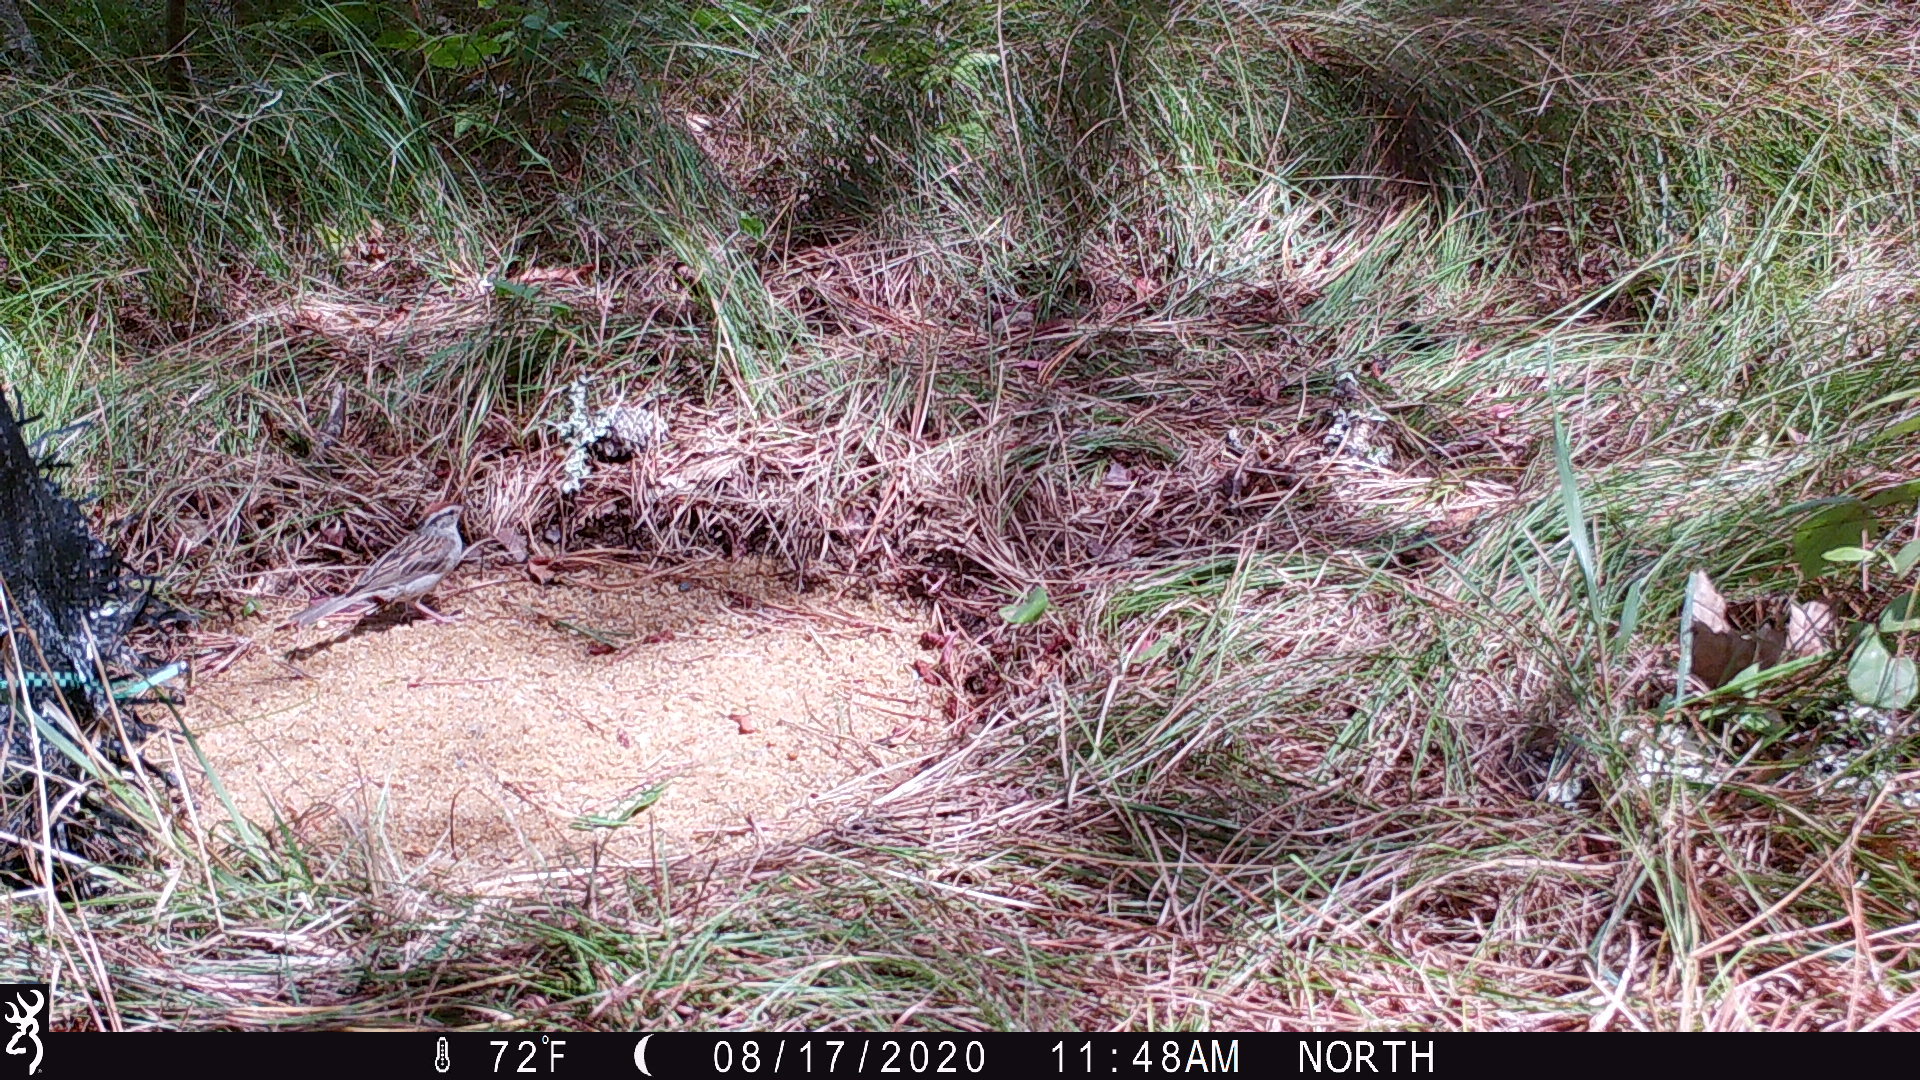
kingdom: Animalia
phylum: Chordata
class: Aves
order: Passeriformes
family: Passerellidae
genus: Spizella
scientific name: Spizella passerina
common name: Chipping sparrow
